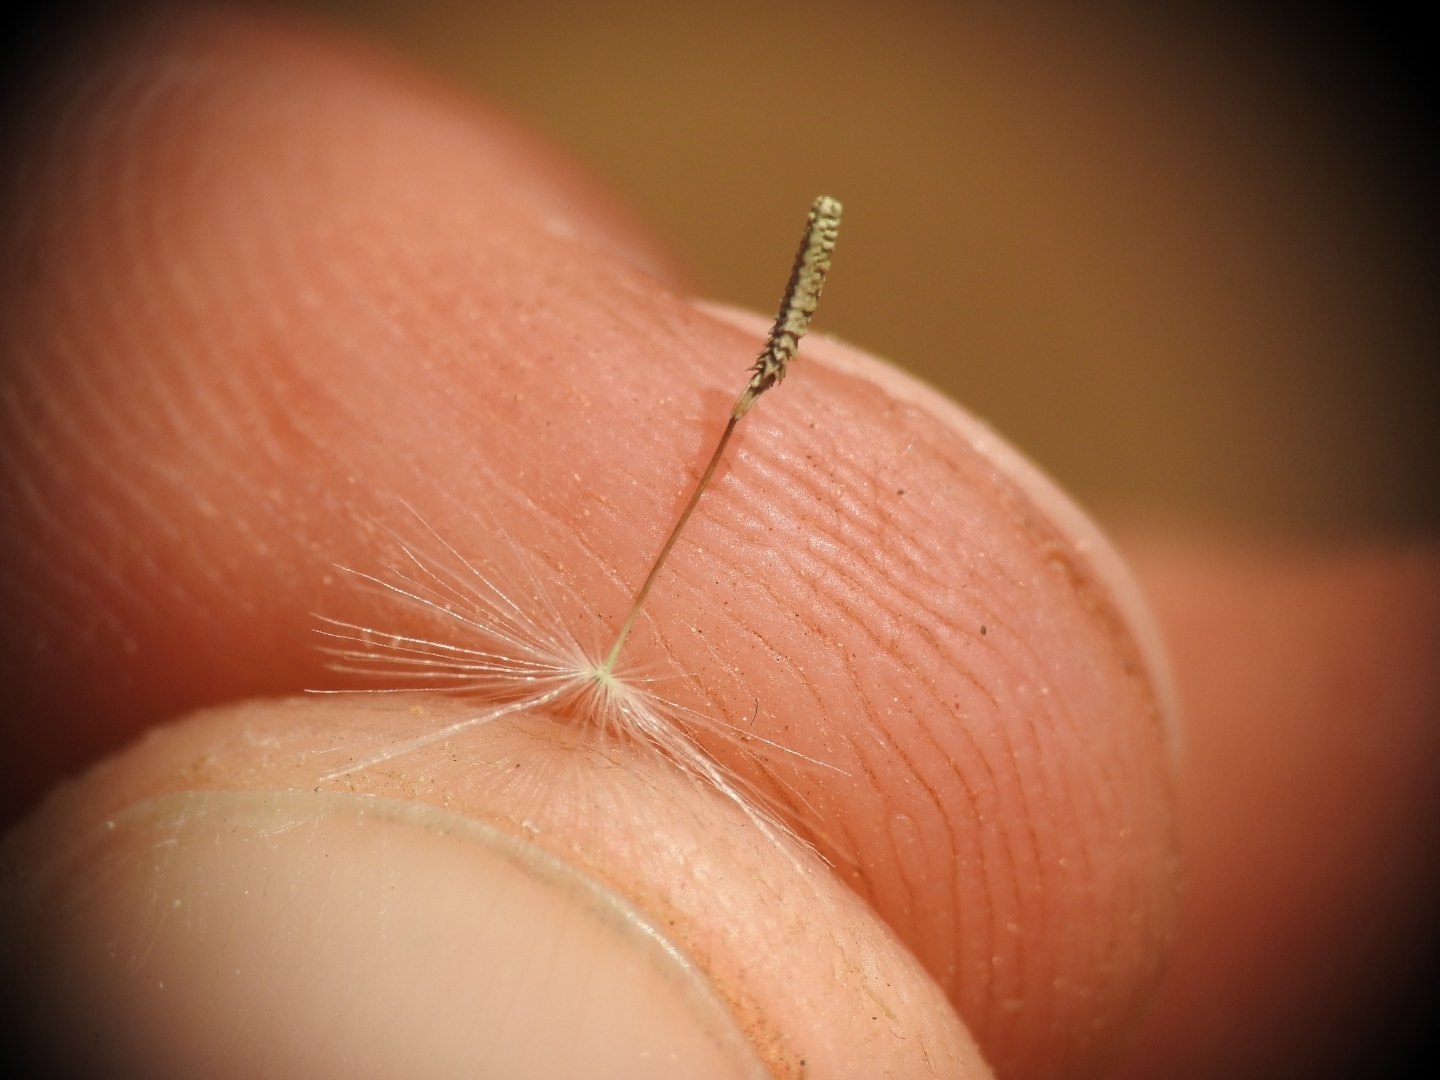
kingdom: Plantae
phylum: Tracheophyta
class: Magnoliopsida
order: Asterales
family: Asteraceae
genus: Taraxacum
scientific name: Taraxacum aleppicum
